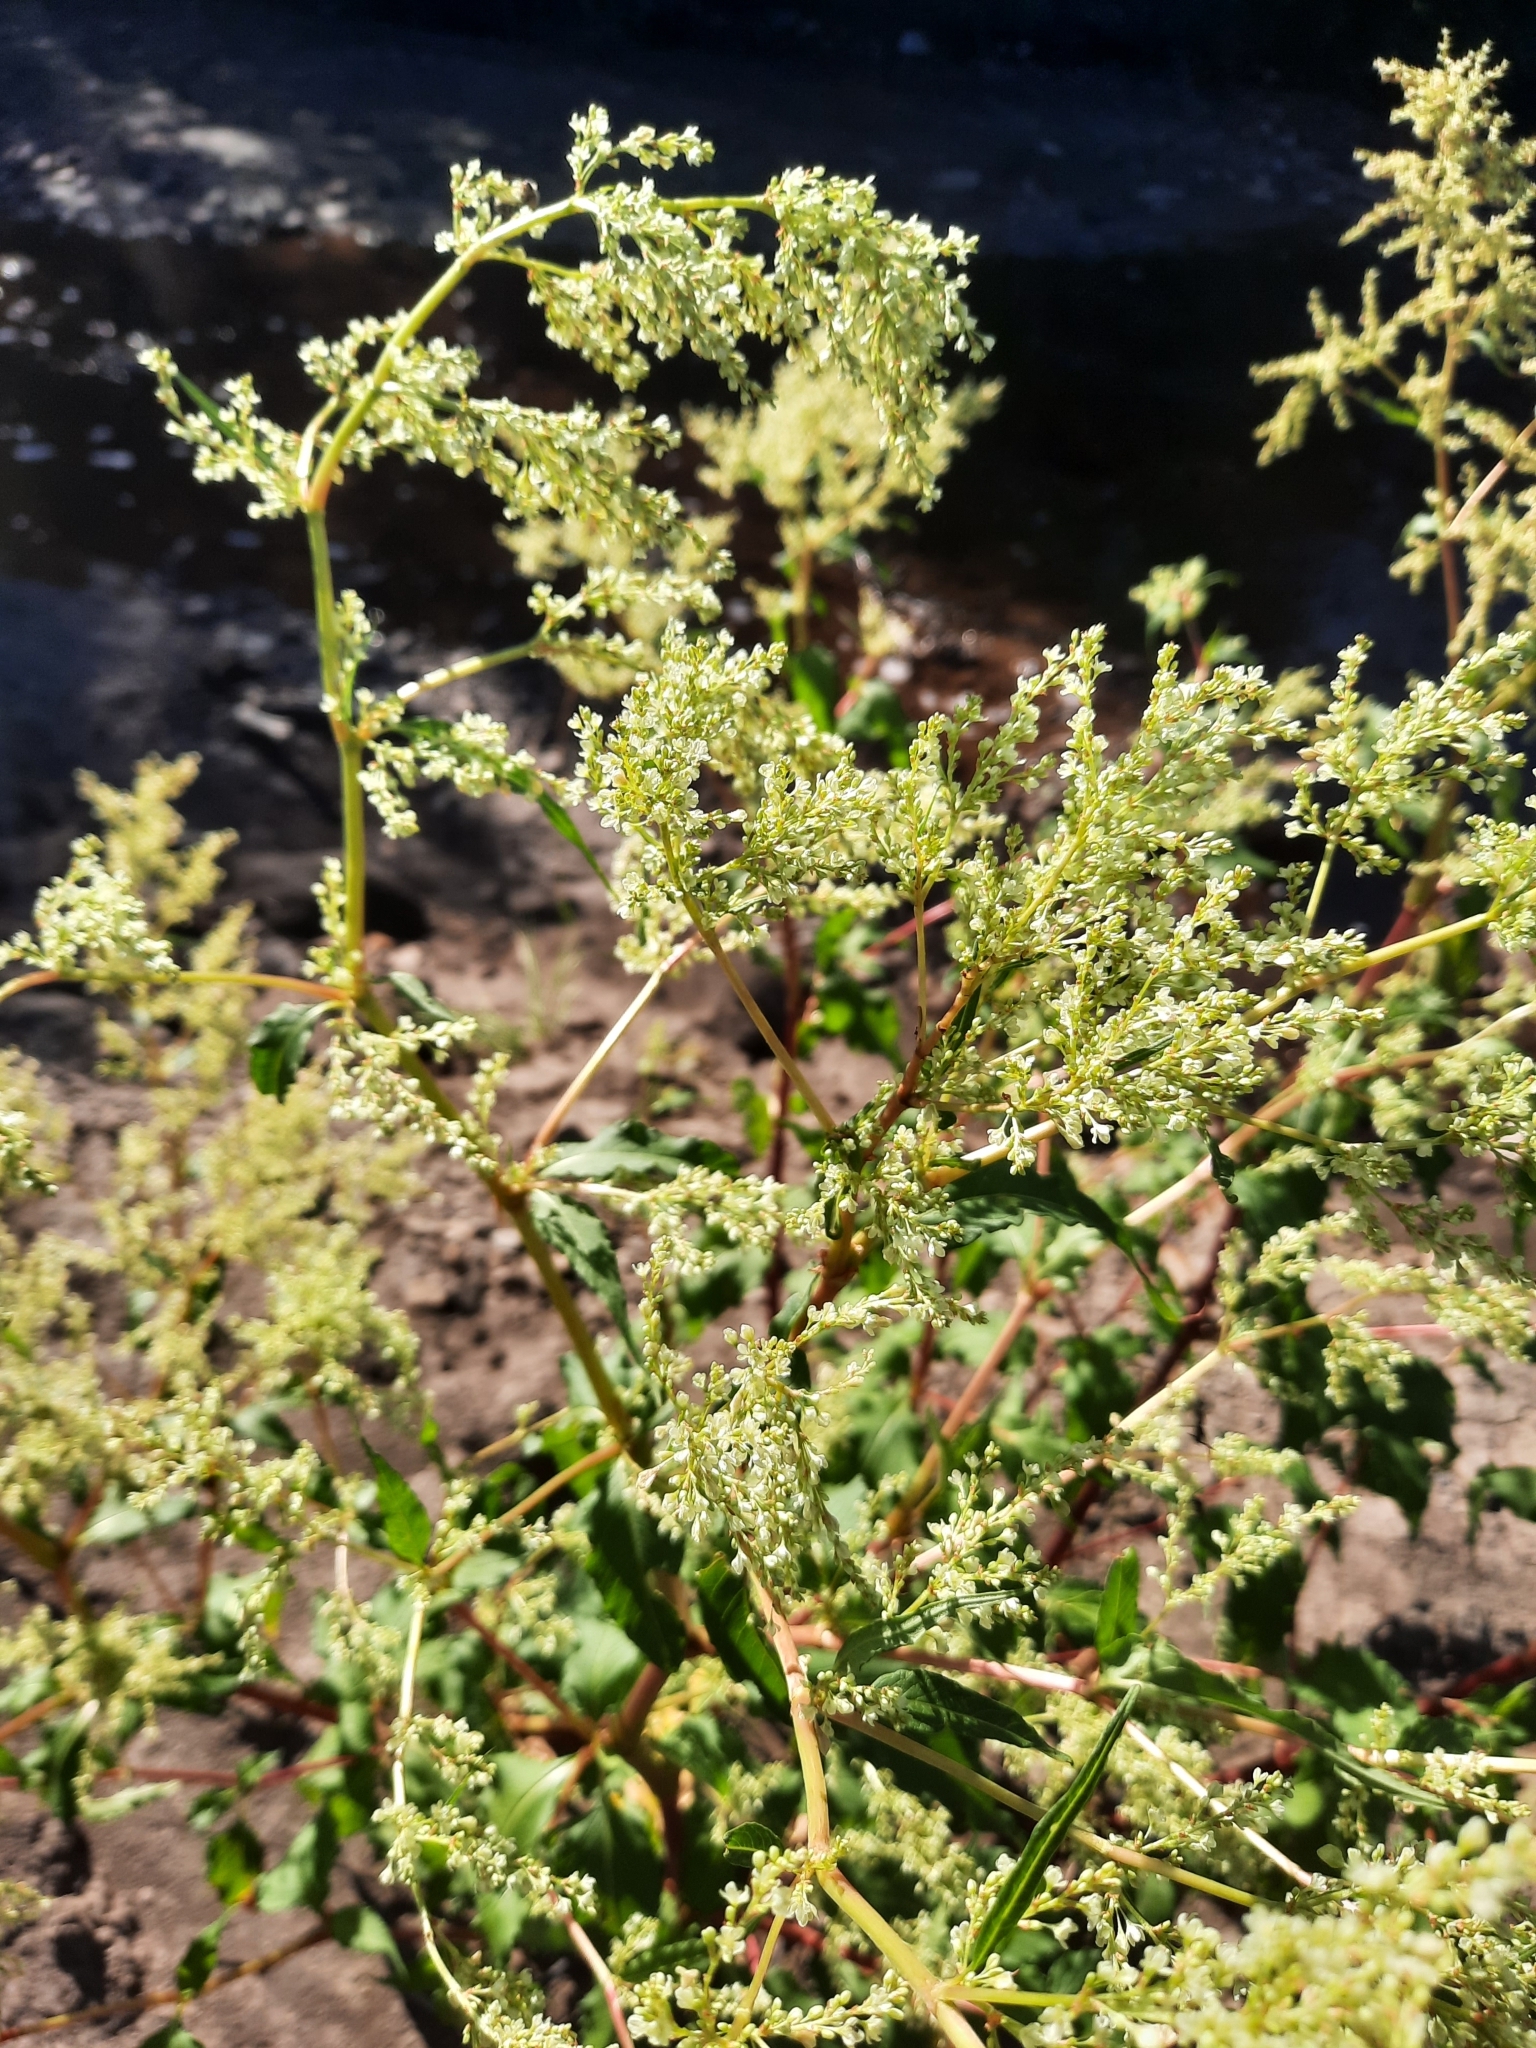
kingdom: Plantae
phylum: Tracheophyta
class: Magnoliopsida
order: Caryophyllales
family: Polygonaceae
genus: Koenigia
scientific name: Koenigia lapathifolia
